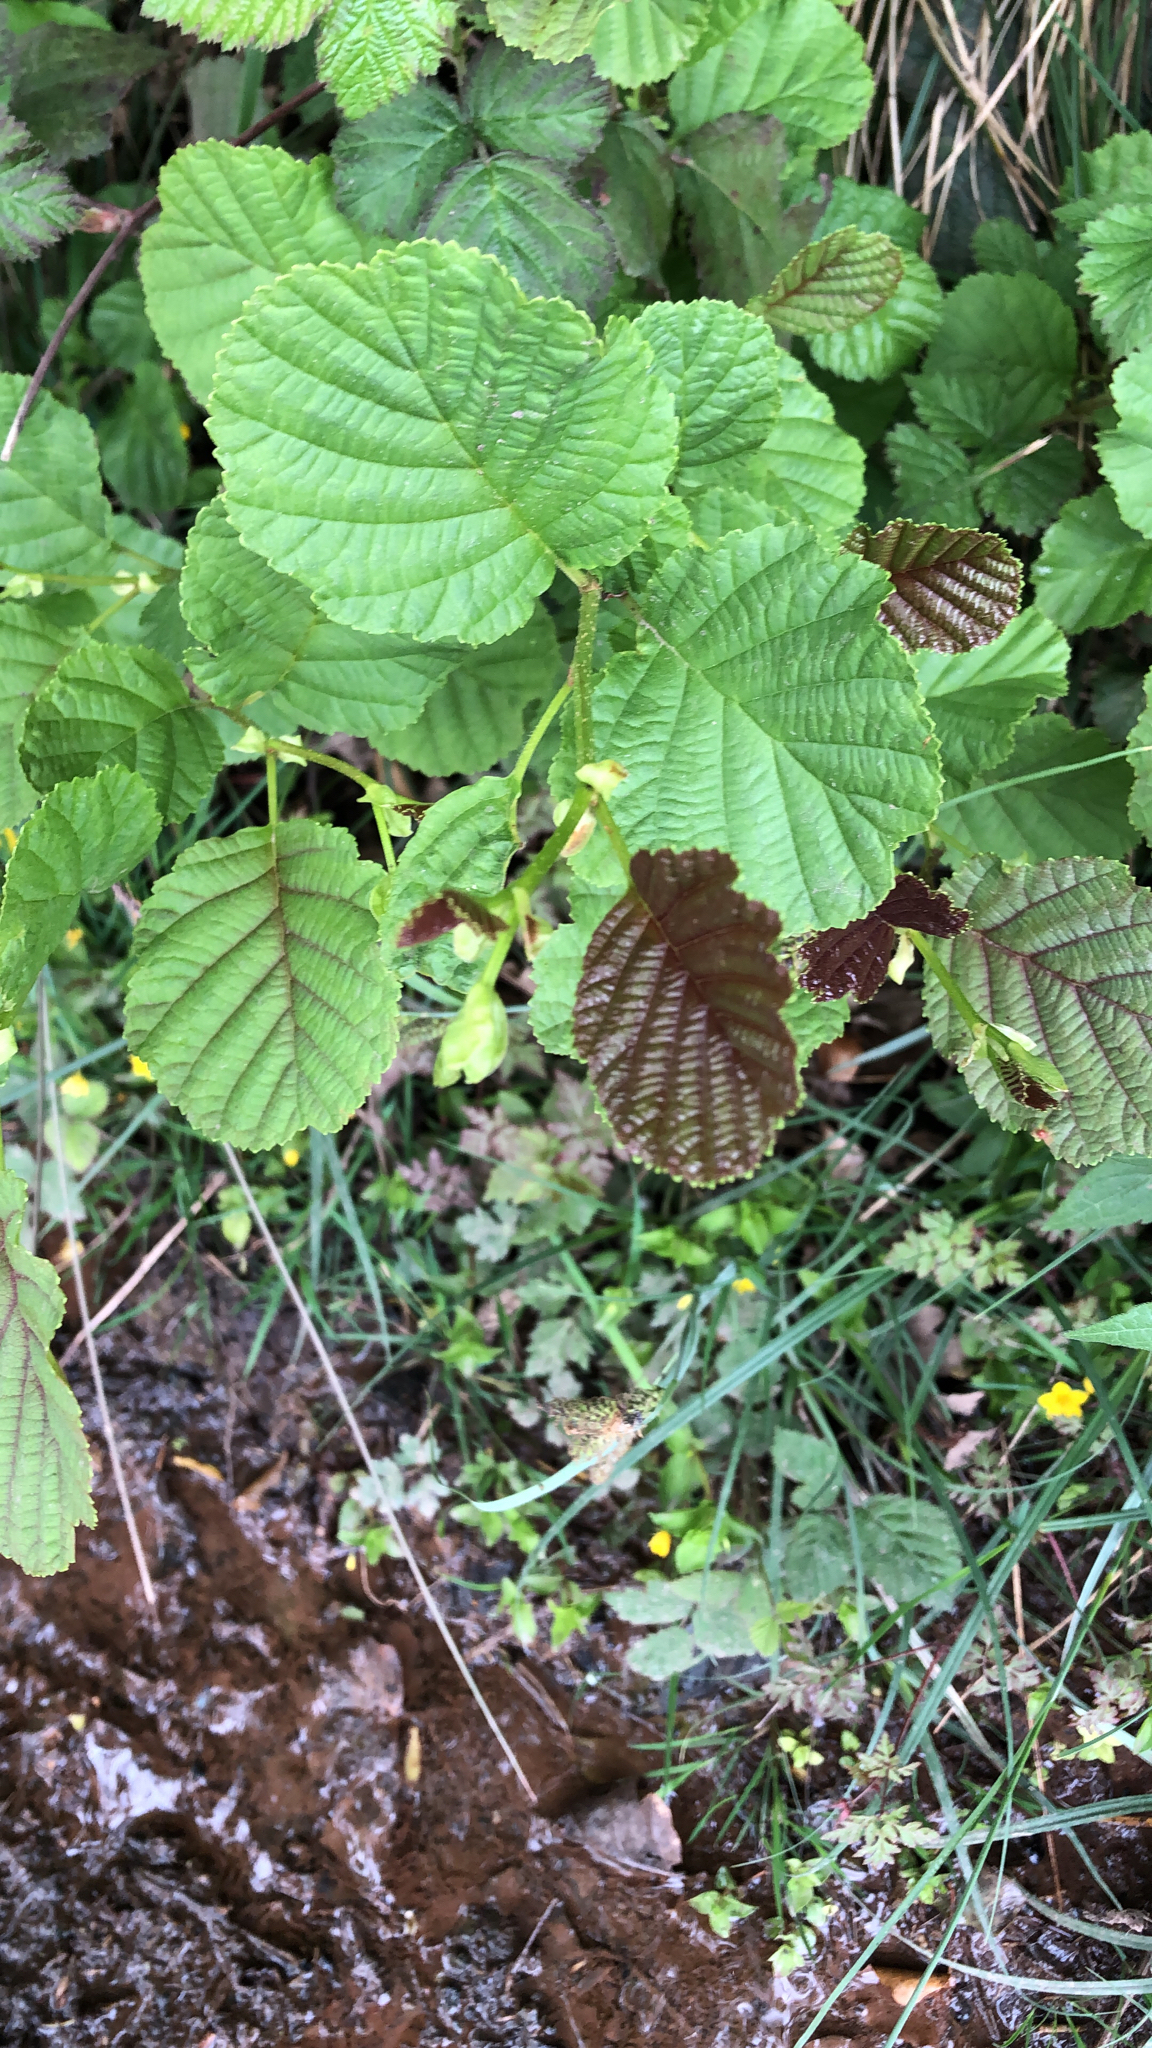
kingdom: Plantae
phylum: Tracheophyta
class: Magnoliopsida
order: Fagales
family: Betulaceae
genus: Alnus
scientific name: Alnus glutinosa
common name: Black alder
